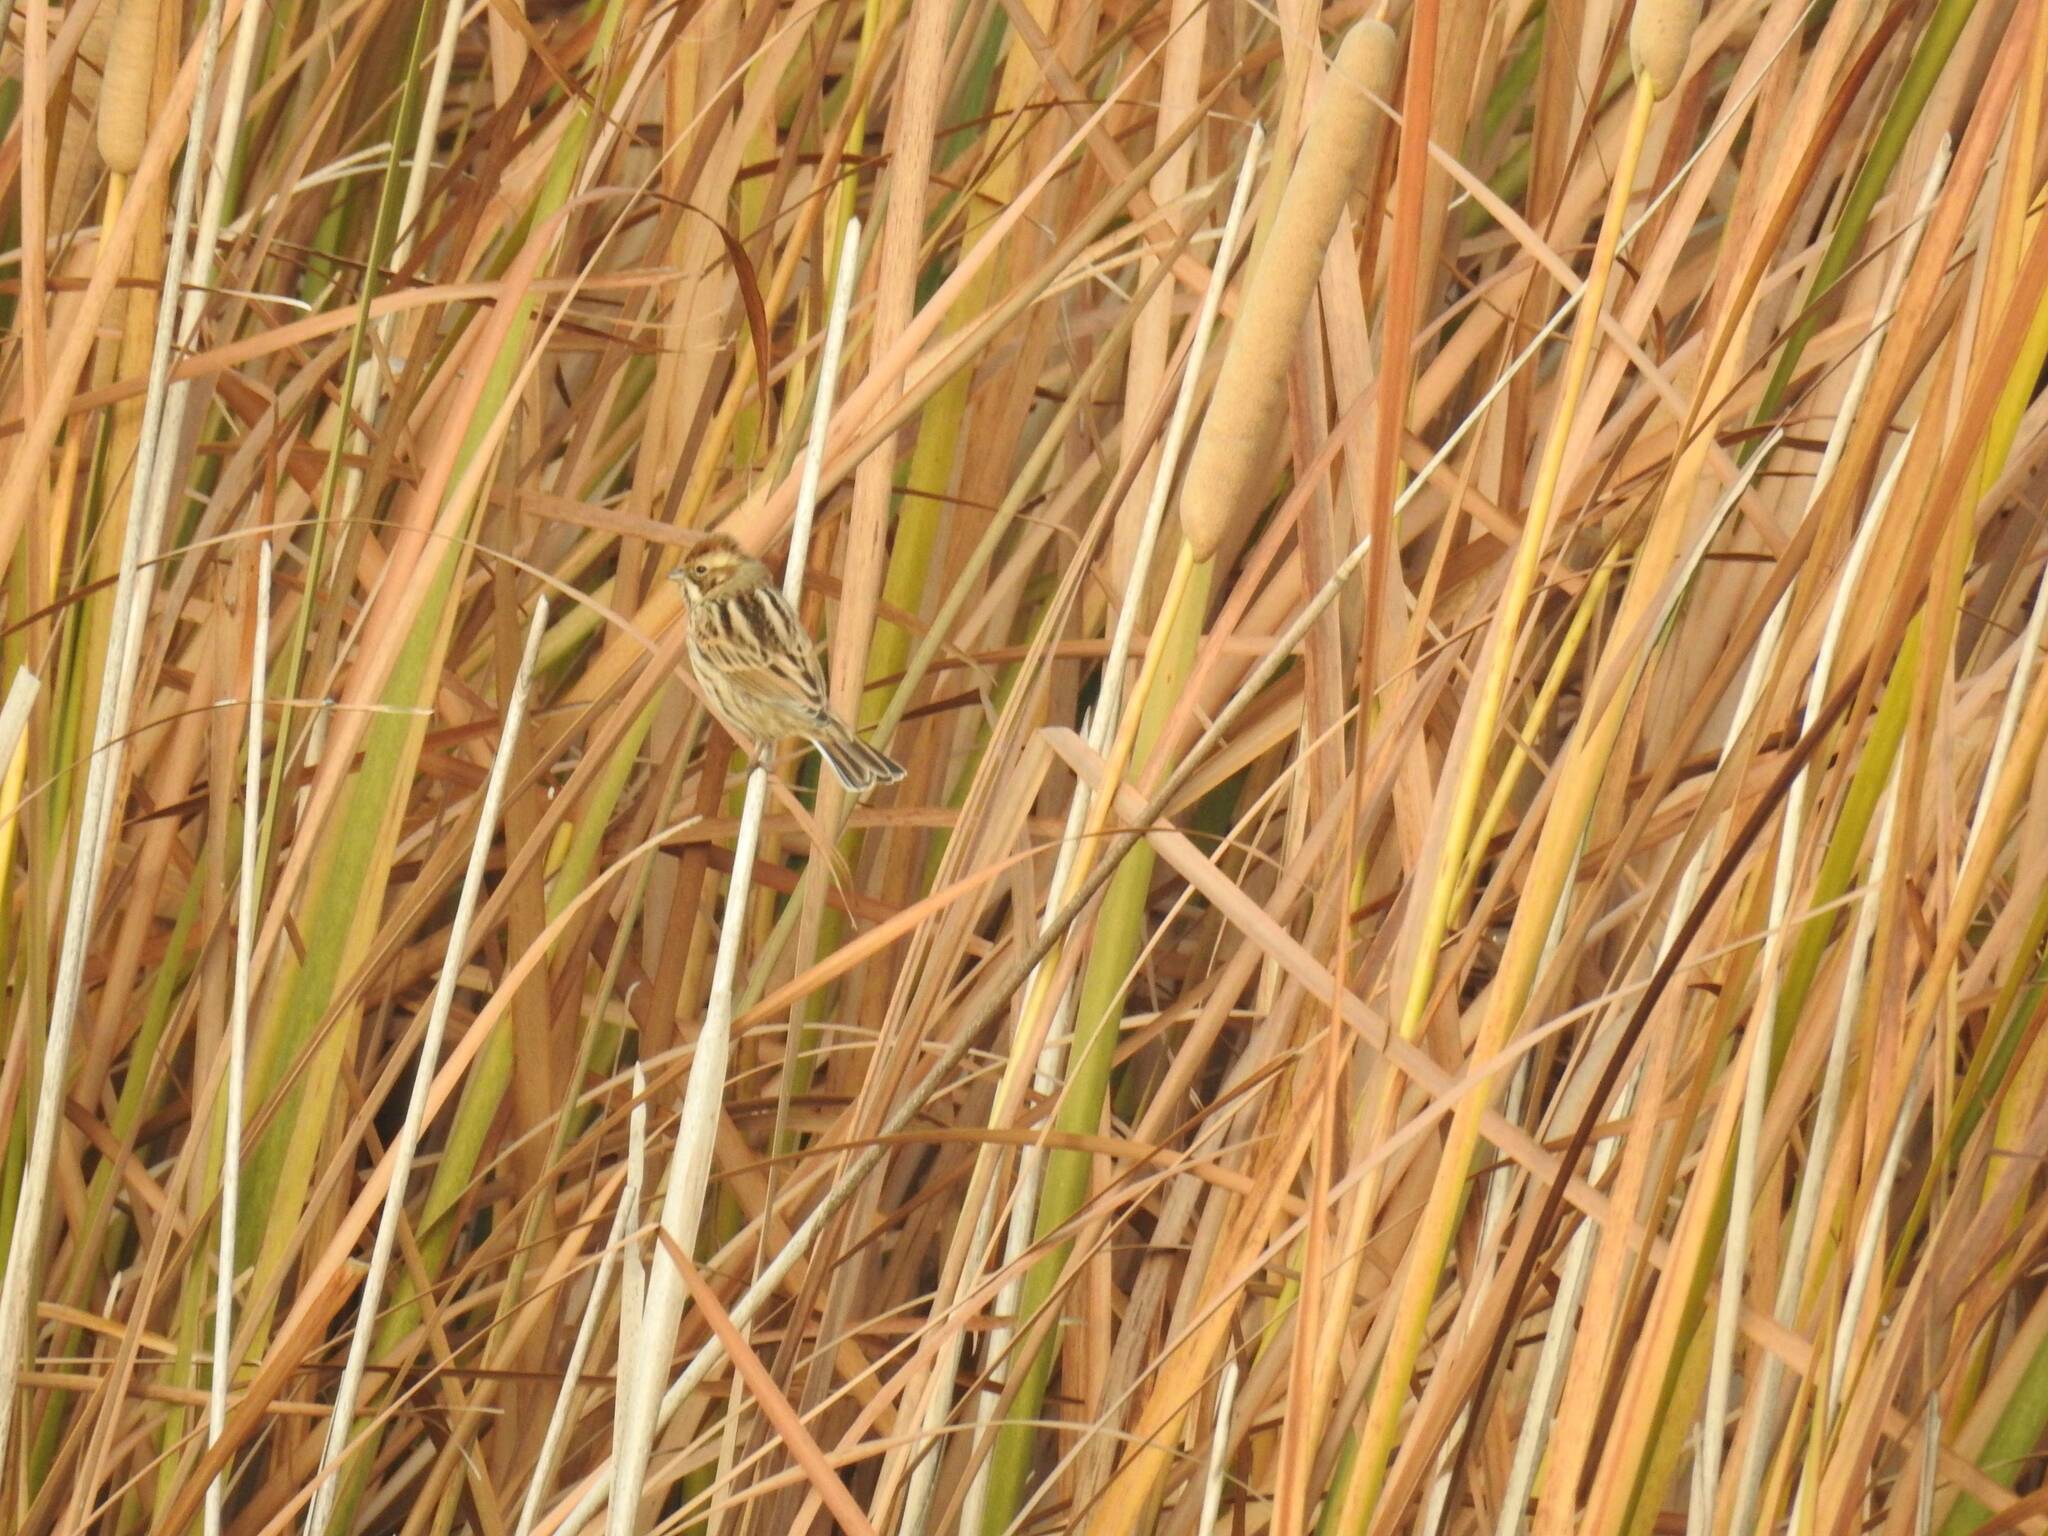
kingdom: Animalia
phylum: Chordata
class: Aves
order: Passeriformes
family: Emberizidae
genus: Emberiza
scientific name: Emberiza schoeniclus
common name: Reed bunting
